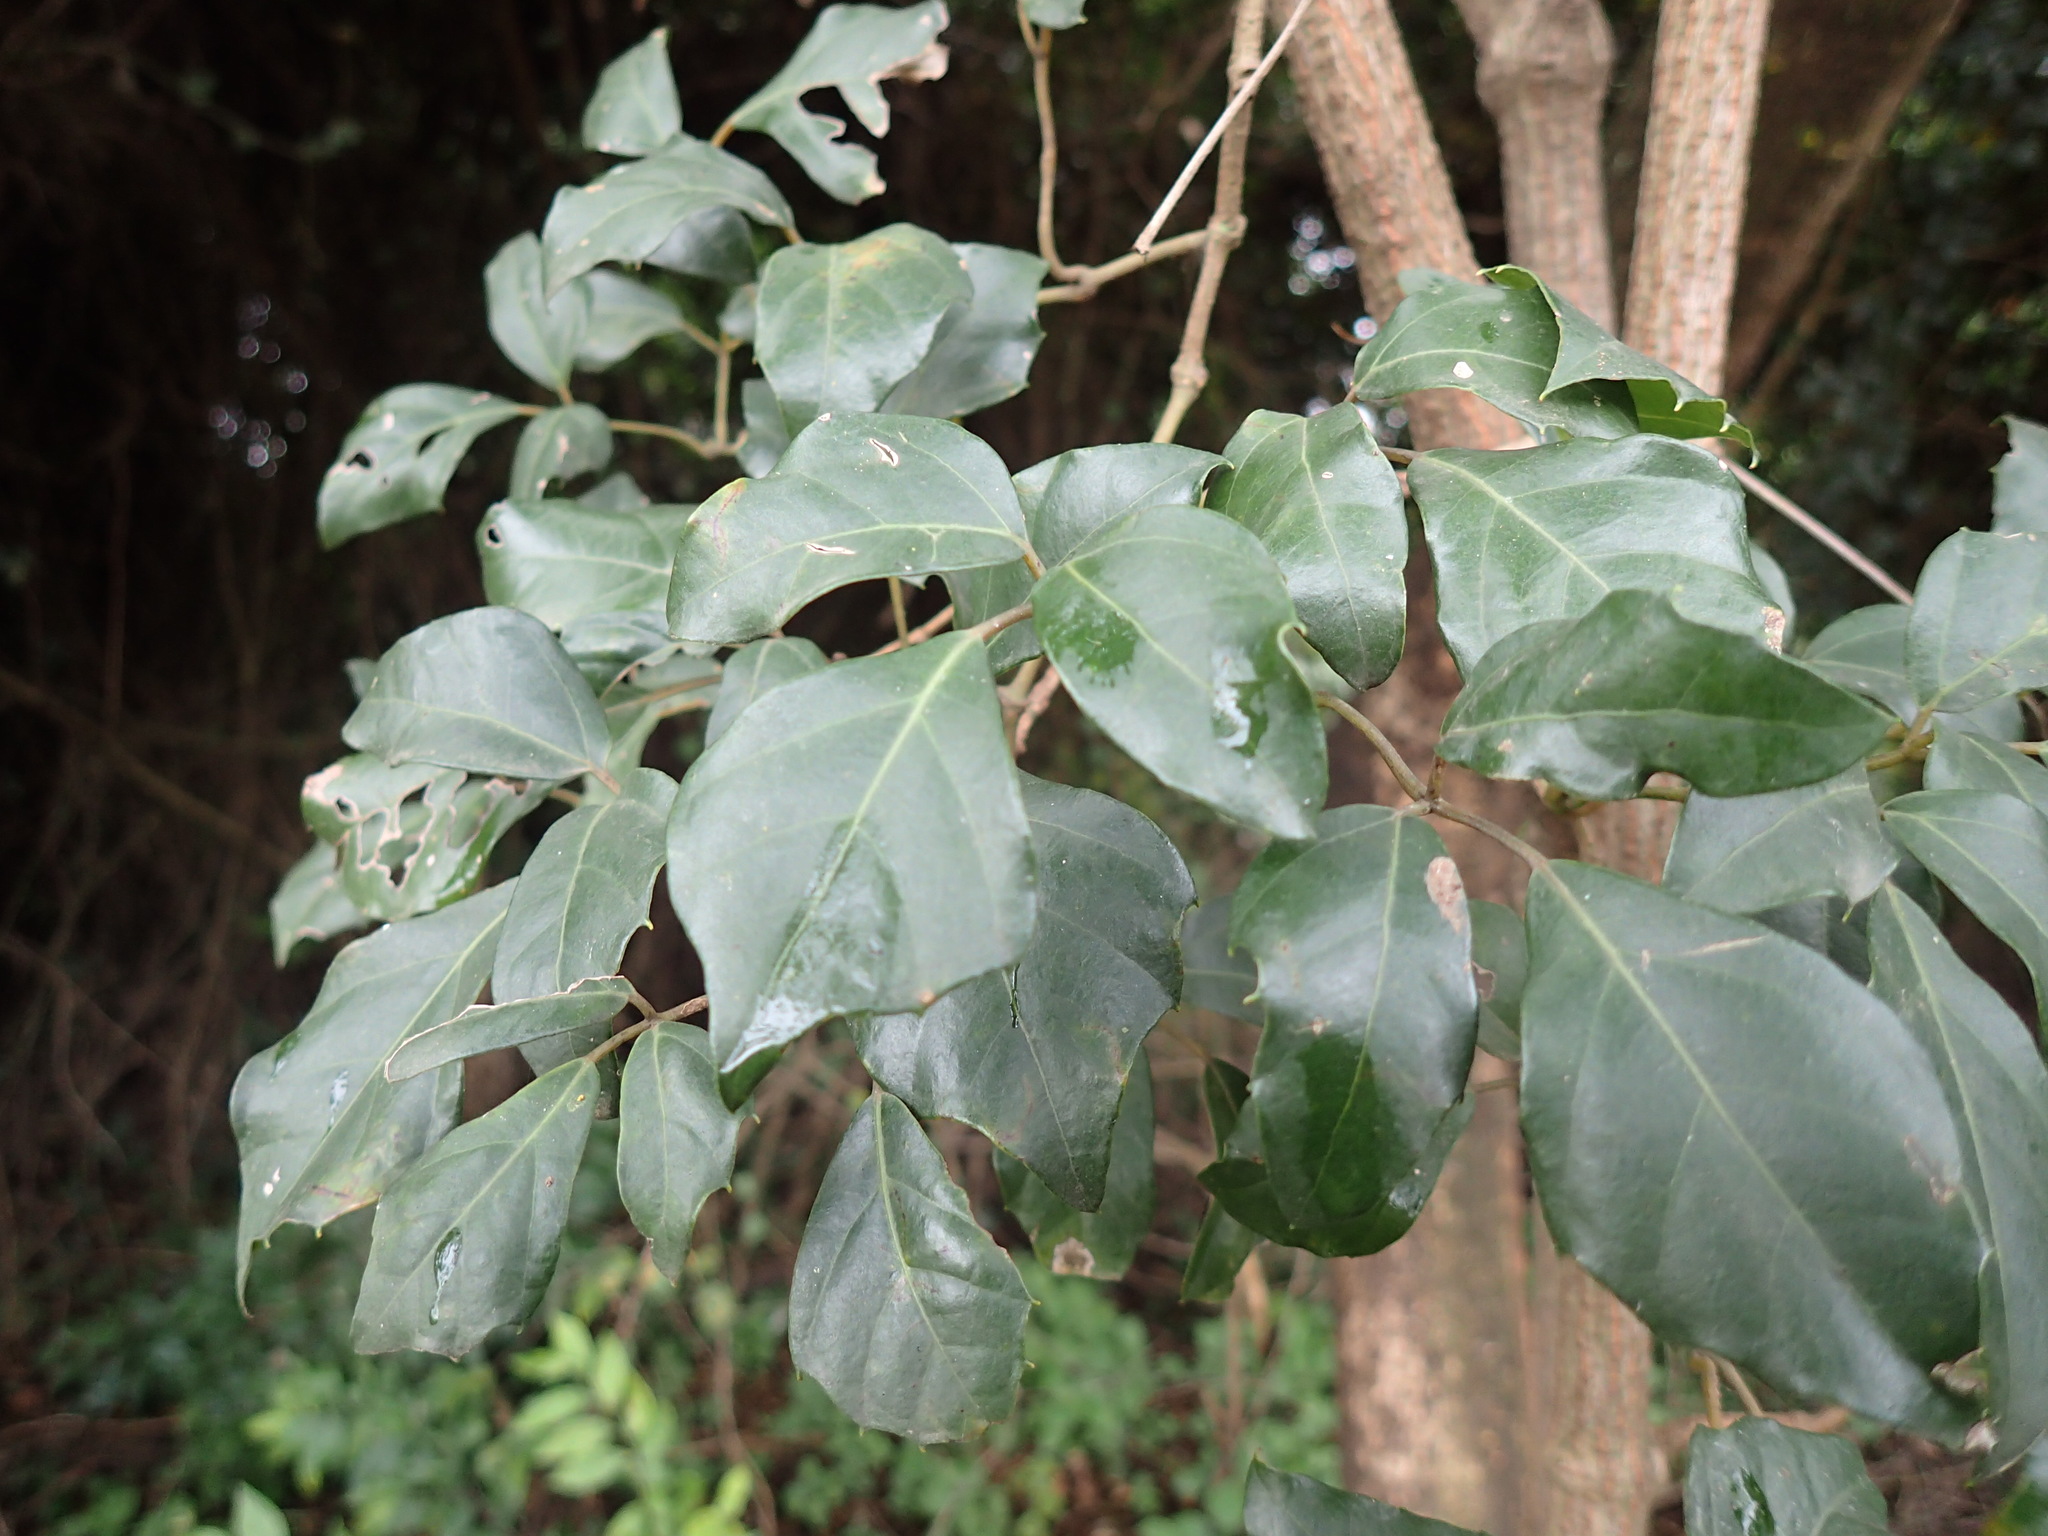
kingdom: Plantae
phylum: Tracheophyta
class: Magnoliopsida
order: Vitales
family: Vitaceae
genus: Rhoicissus
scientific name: Rhoicissus rhomboidea
